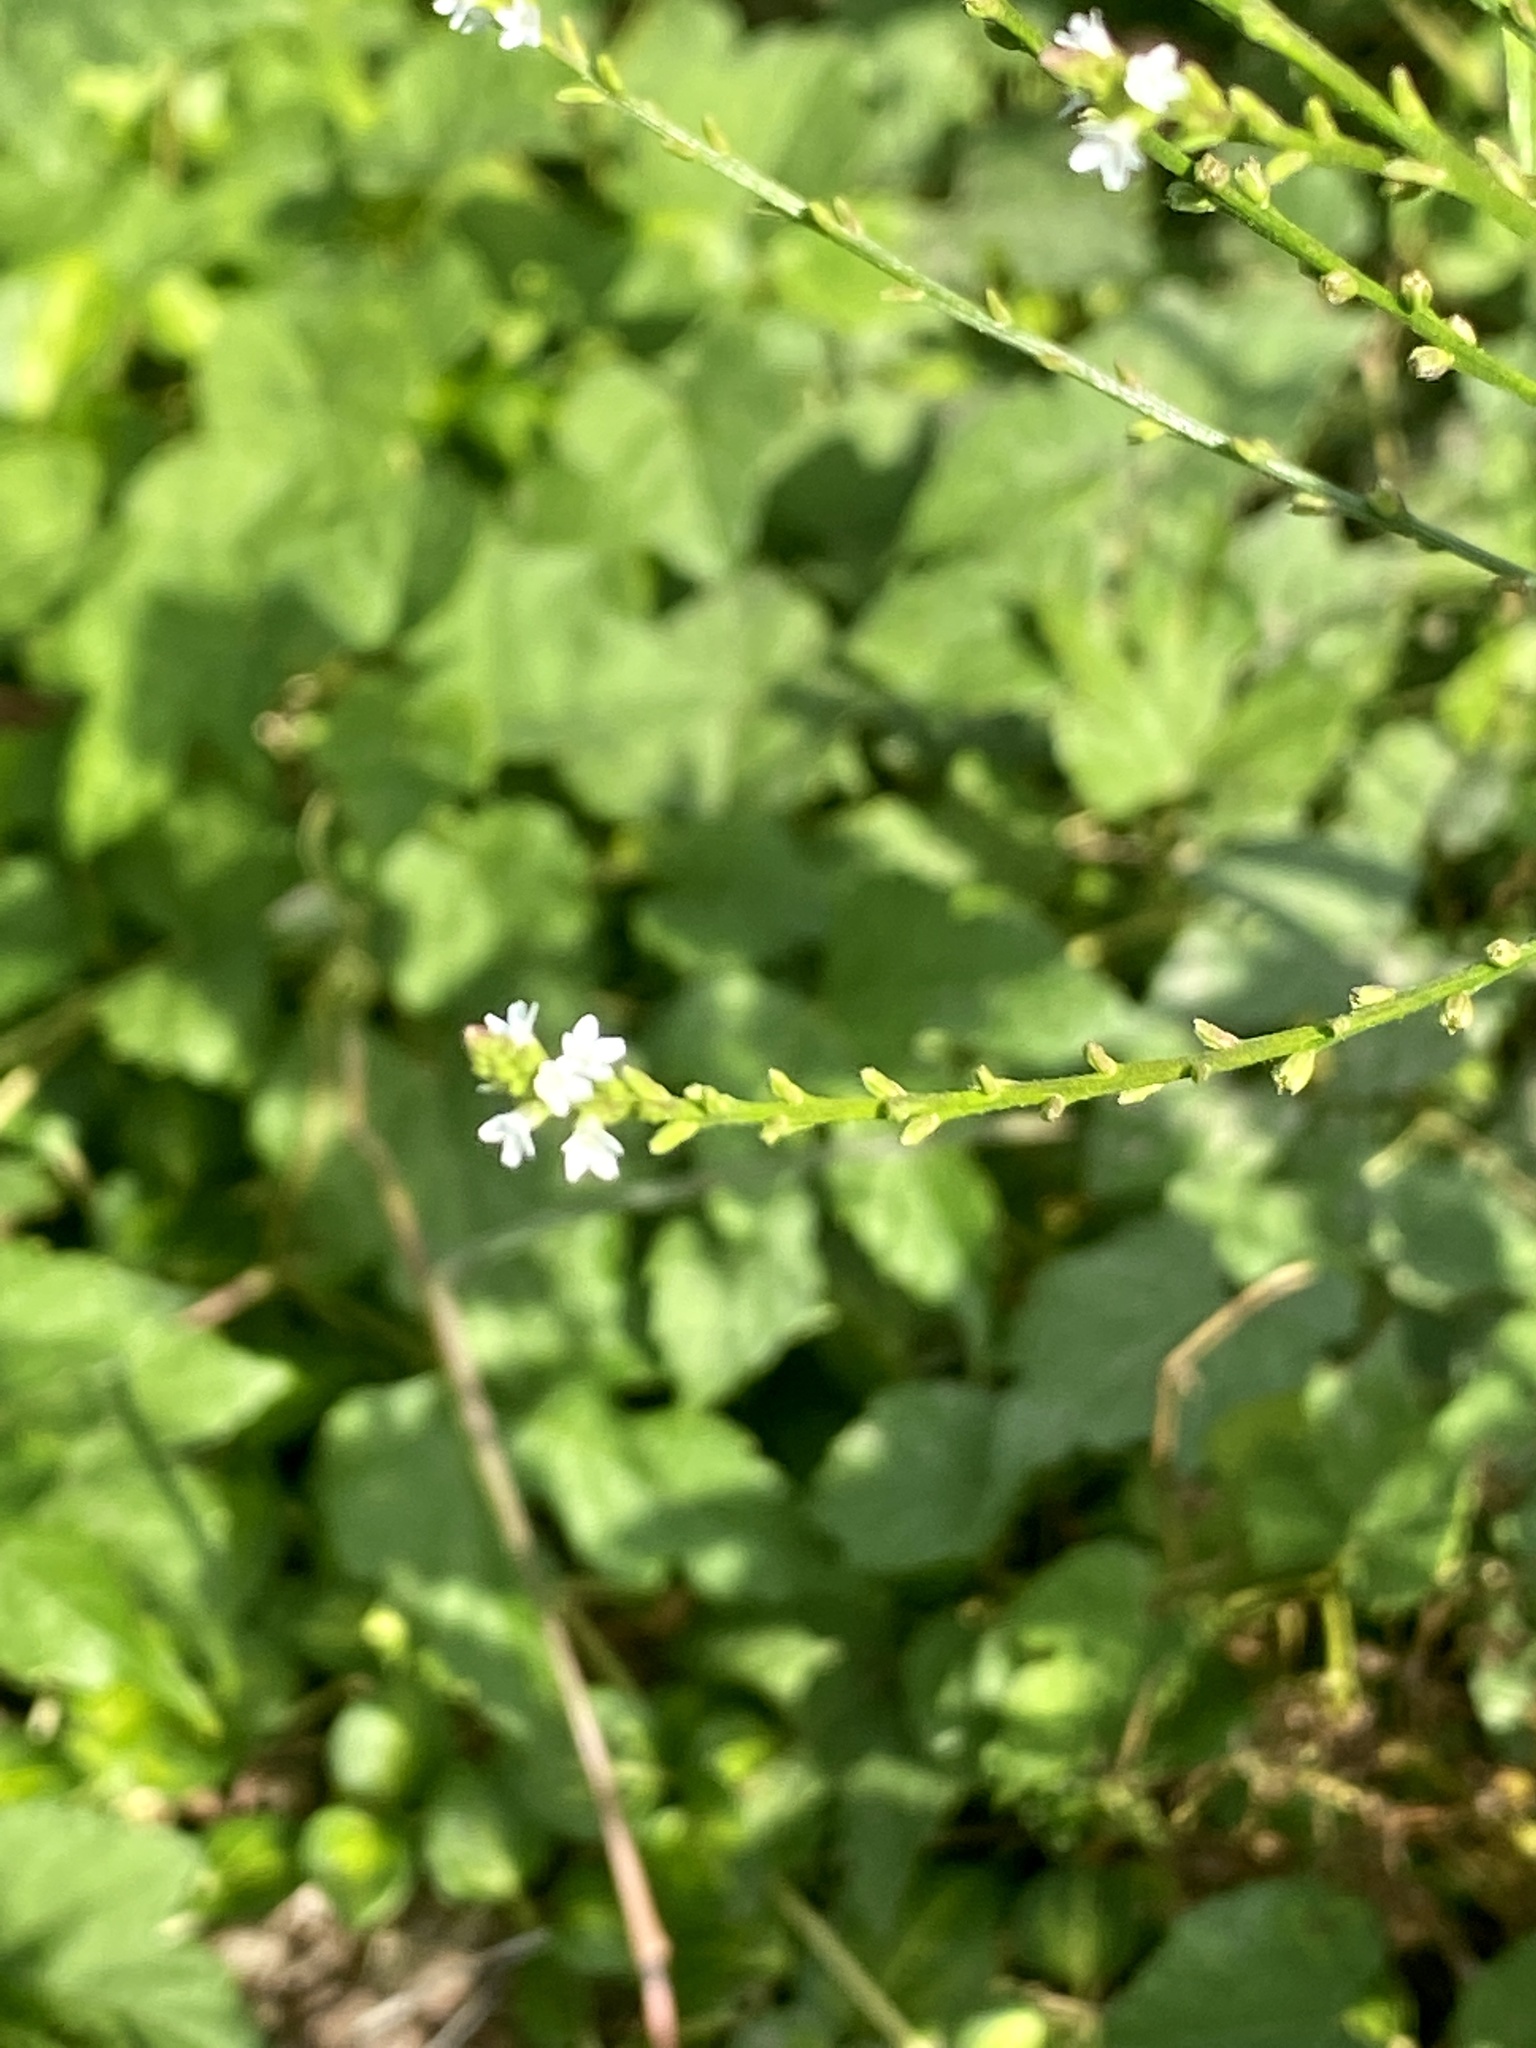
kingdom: Plantae
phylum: Tracheophyta
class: Magnoliopsida
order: Lamiales
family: Verbenaceae
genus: Verbena
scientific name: Verbena urticifolia
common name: Nettle-leaved vervain
